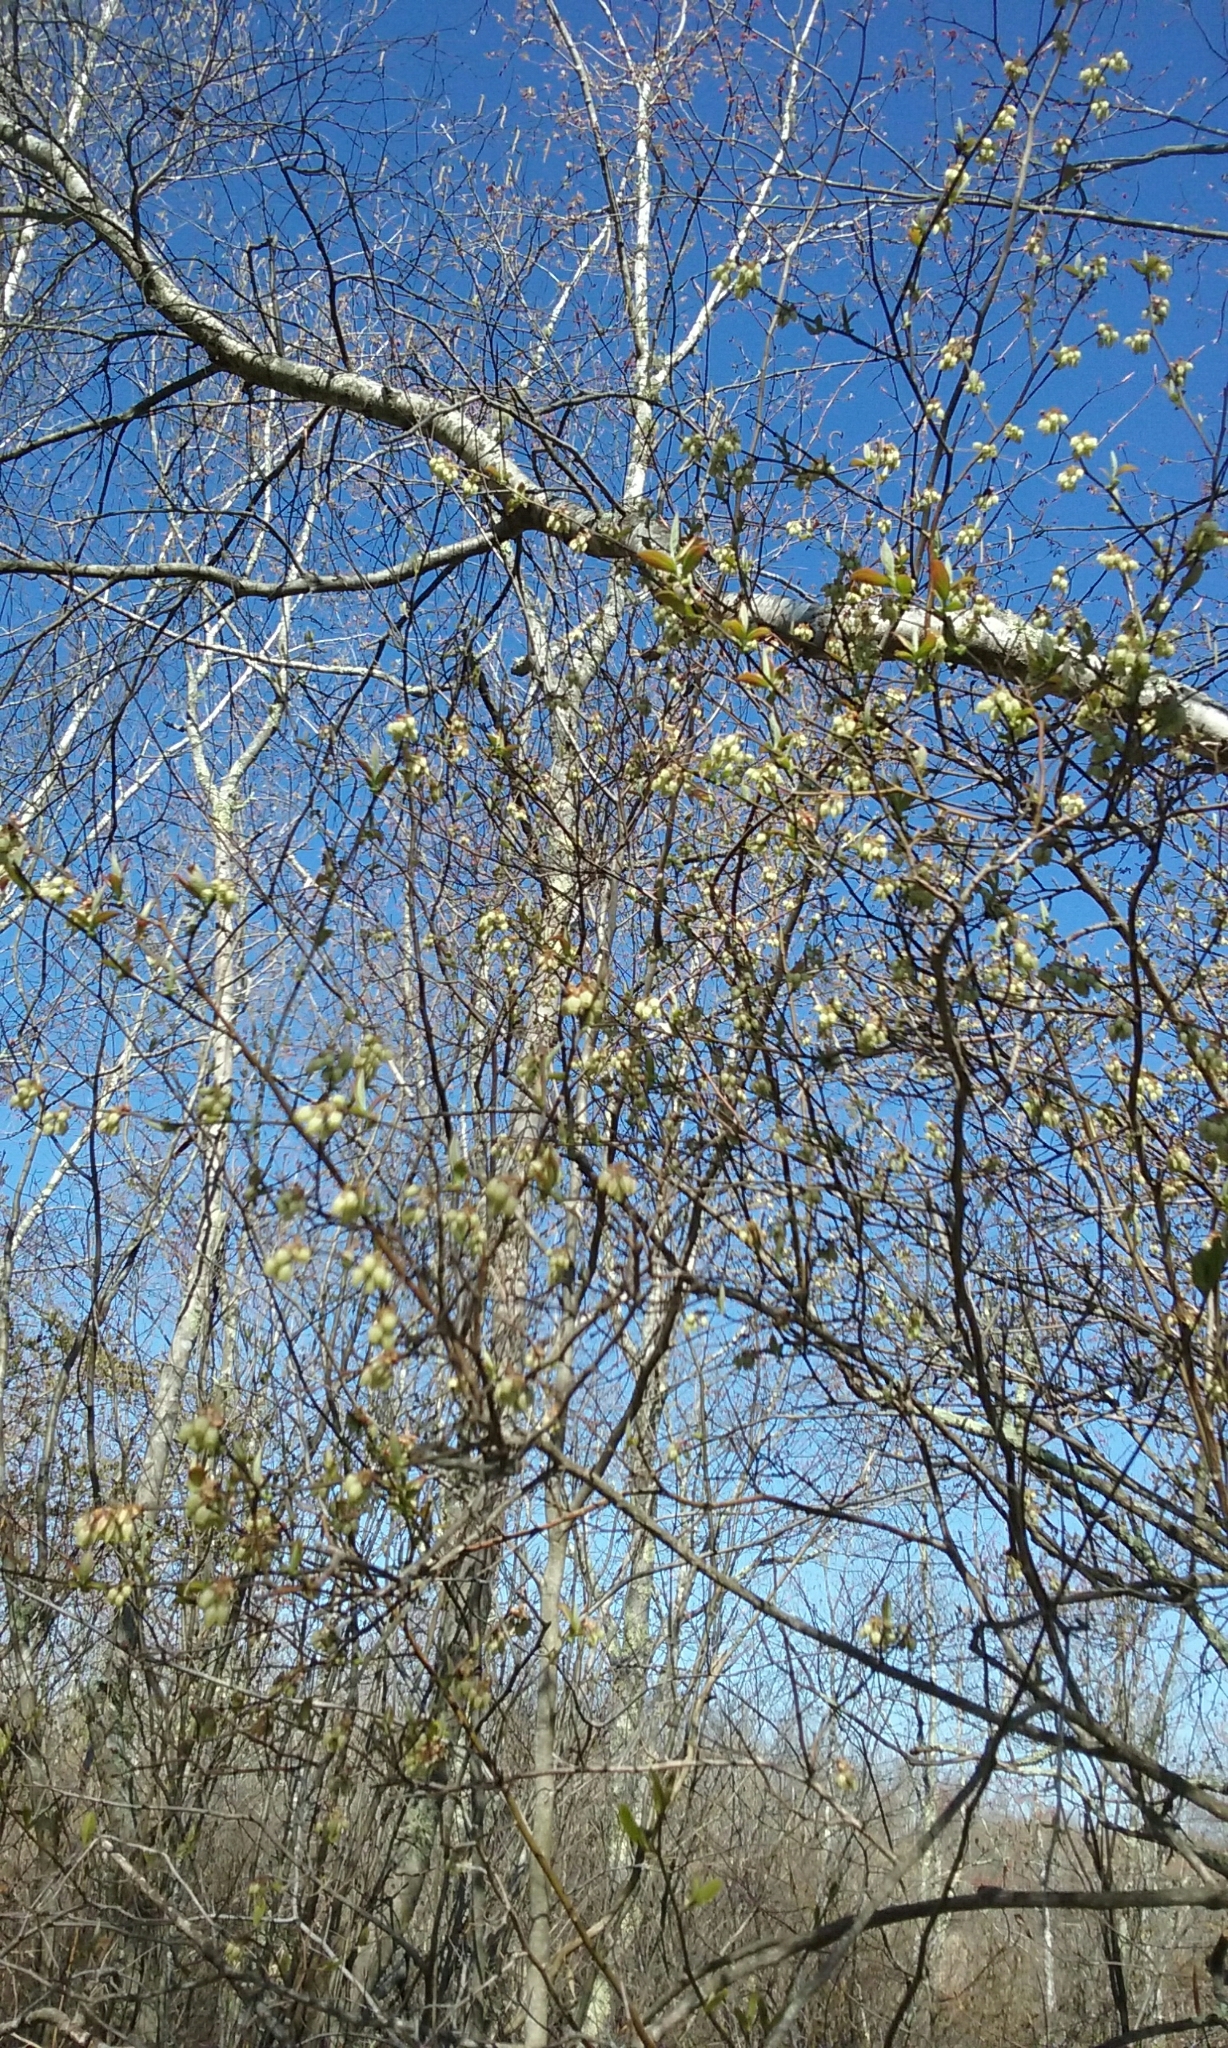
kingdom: Plantae
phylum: Tracheophyta
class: Magnoliopsida
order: Ericales
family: Ericaceae
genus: Vaccinium
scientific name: Vaccinium corymbosum
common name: Blueberry
